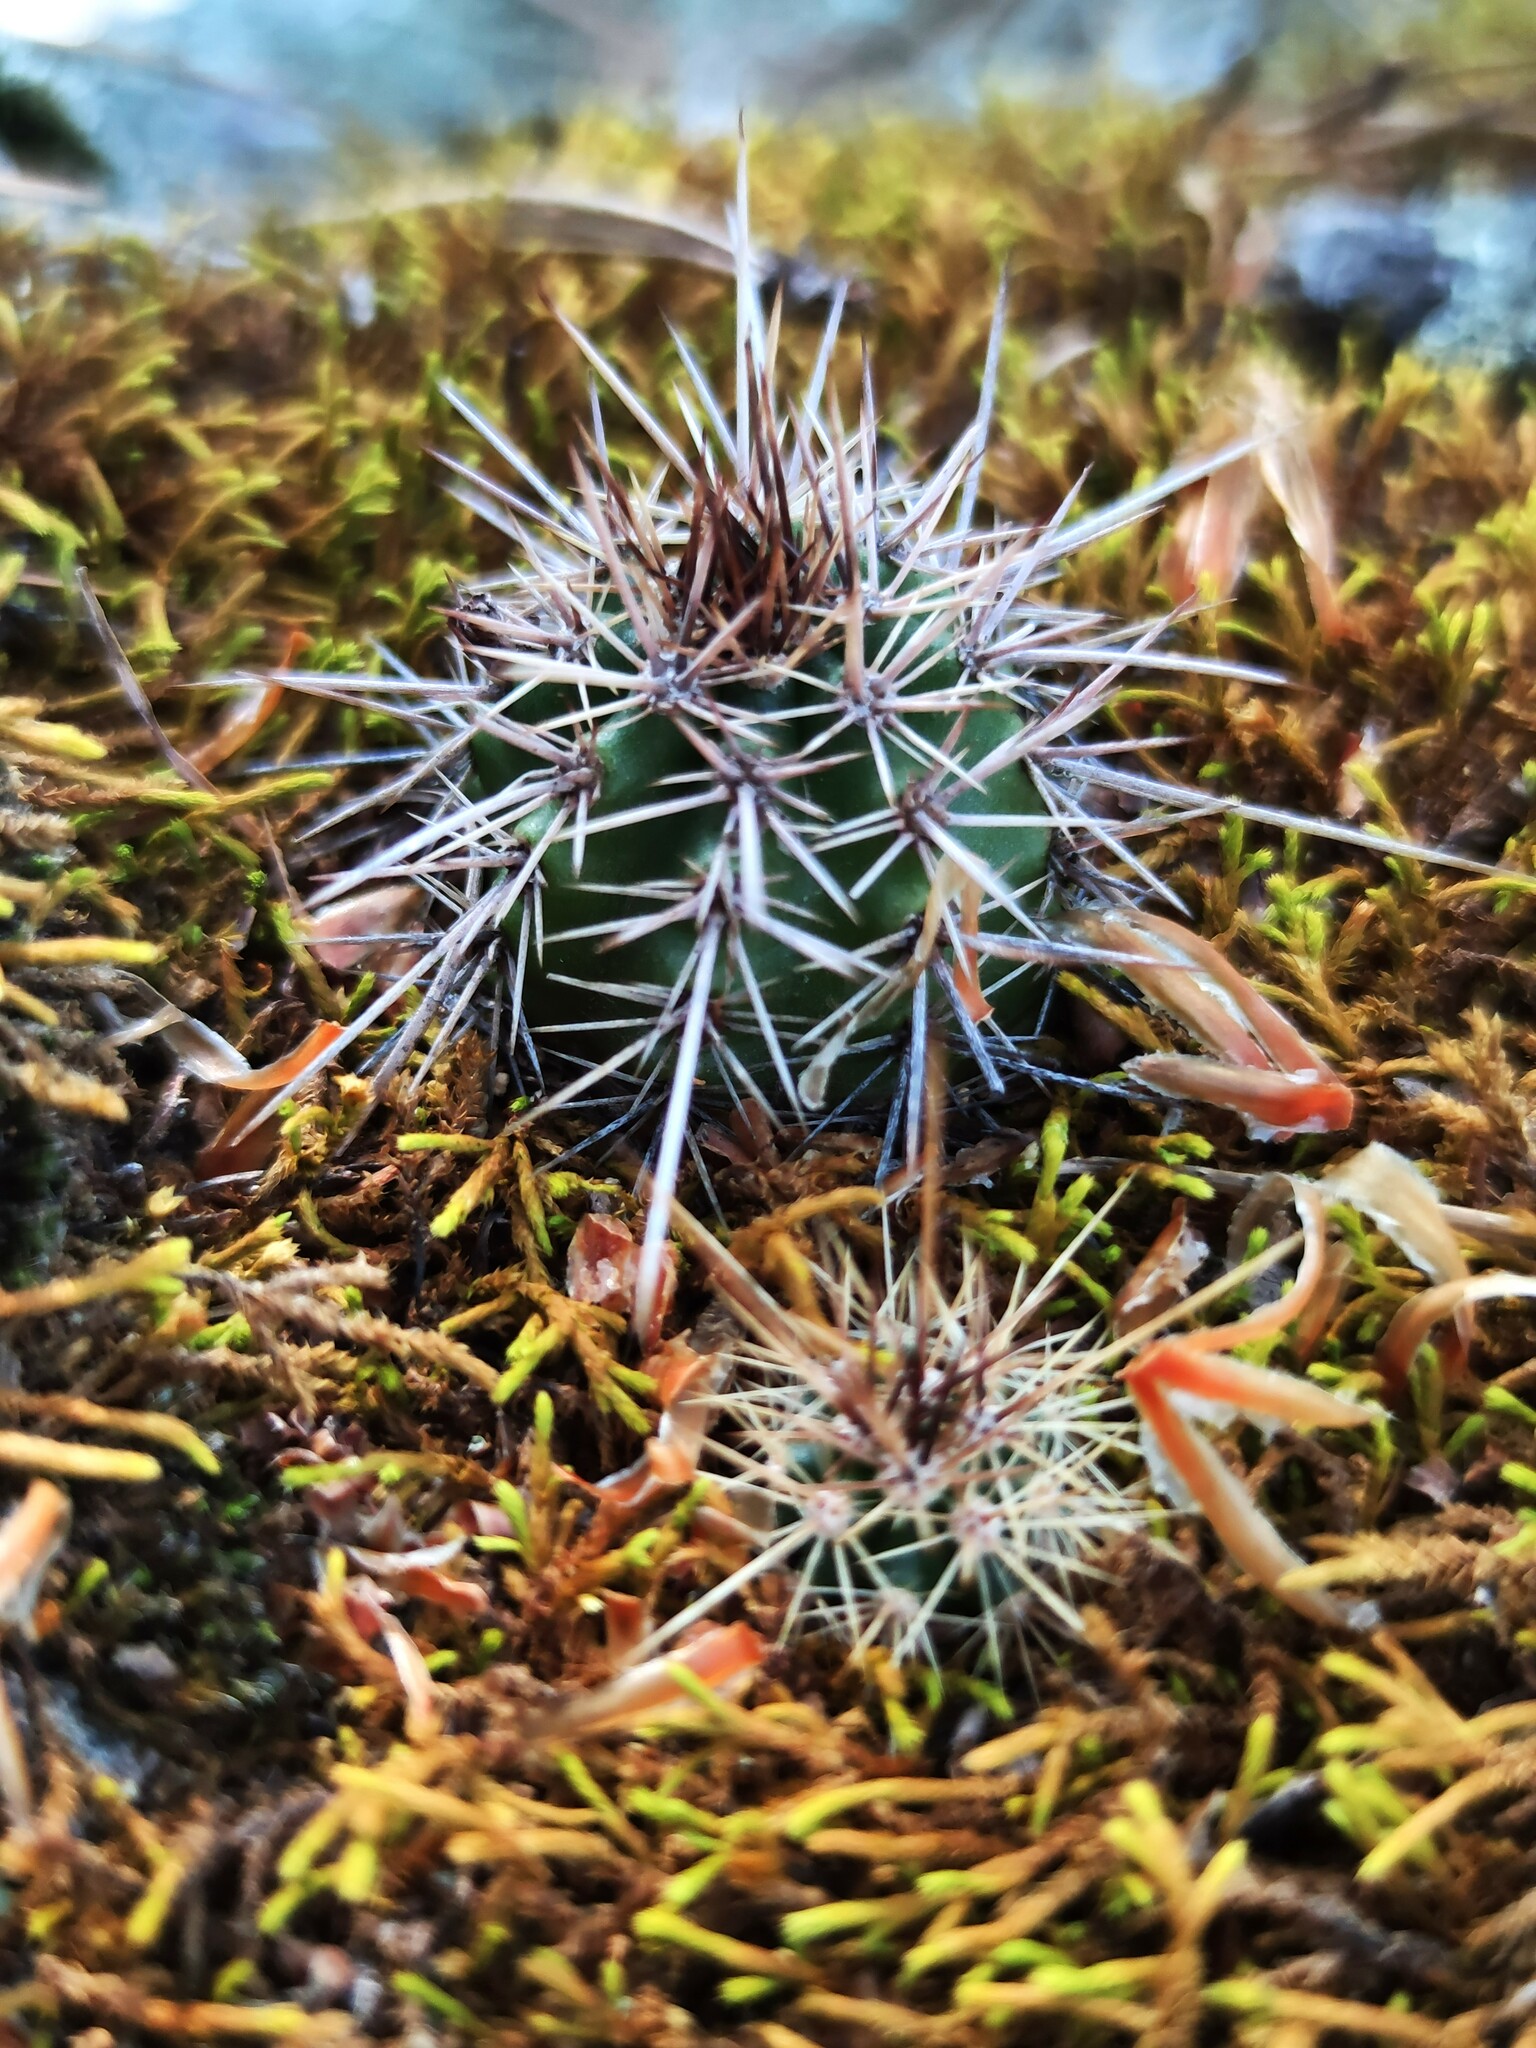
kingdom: Plantae
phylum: Tracheophyta
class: Magnoliopsida
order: Caryophyllales
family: Cactaceae
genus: Echinocereus
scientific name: Echinocereus polyacanthus
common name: Mojave mound cactus
